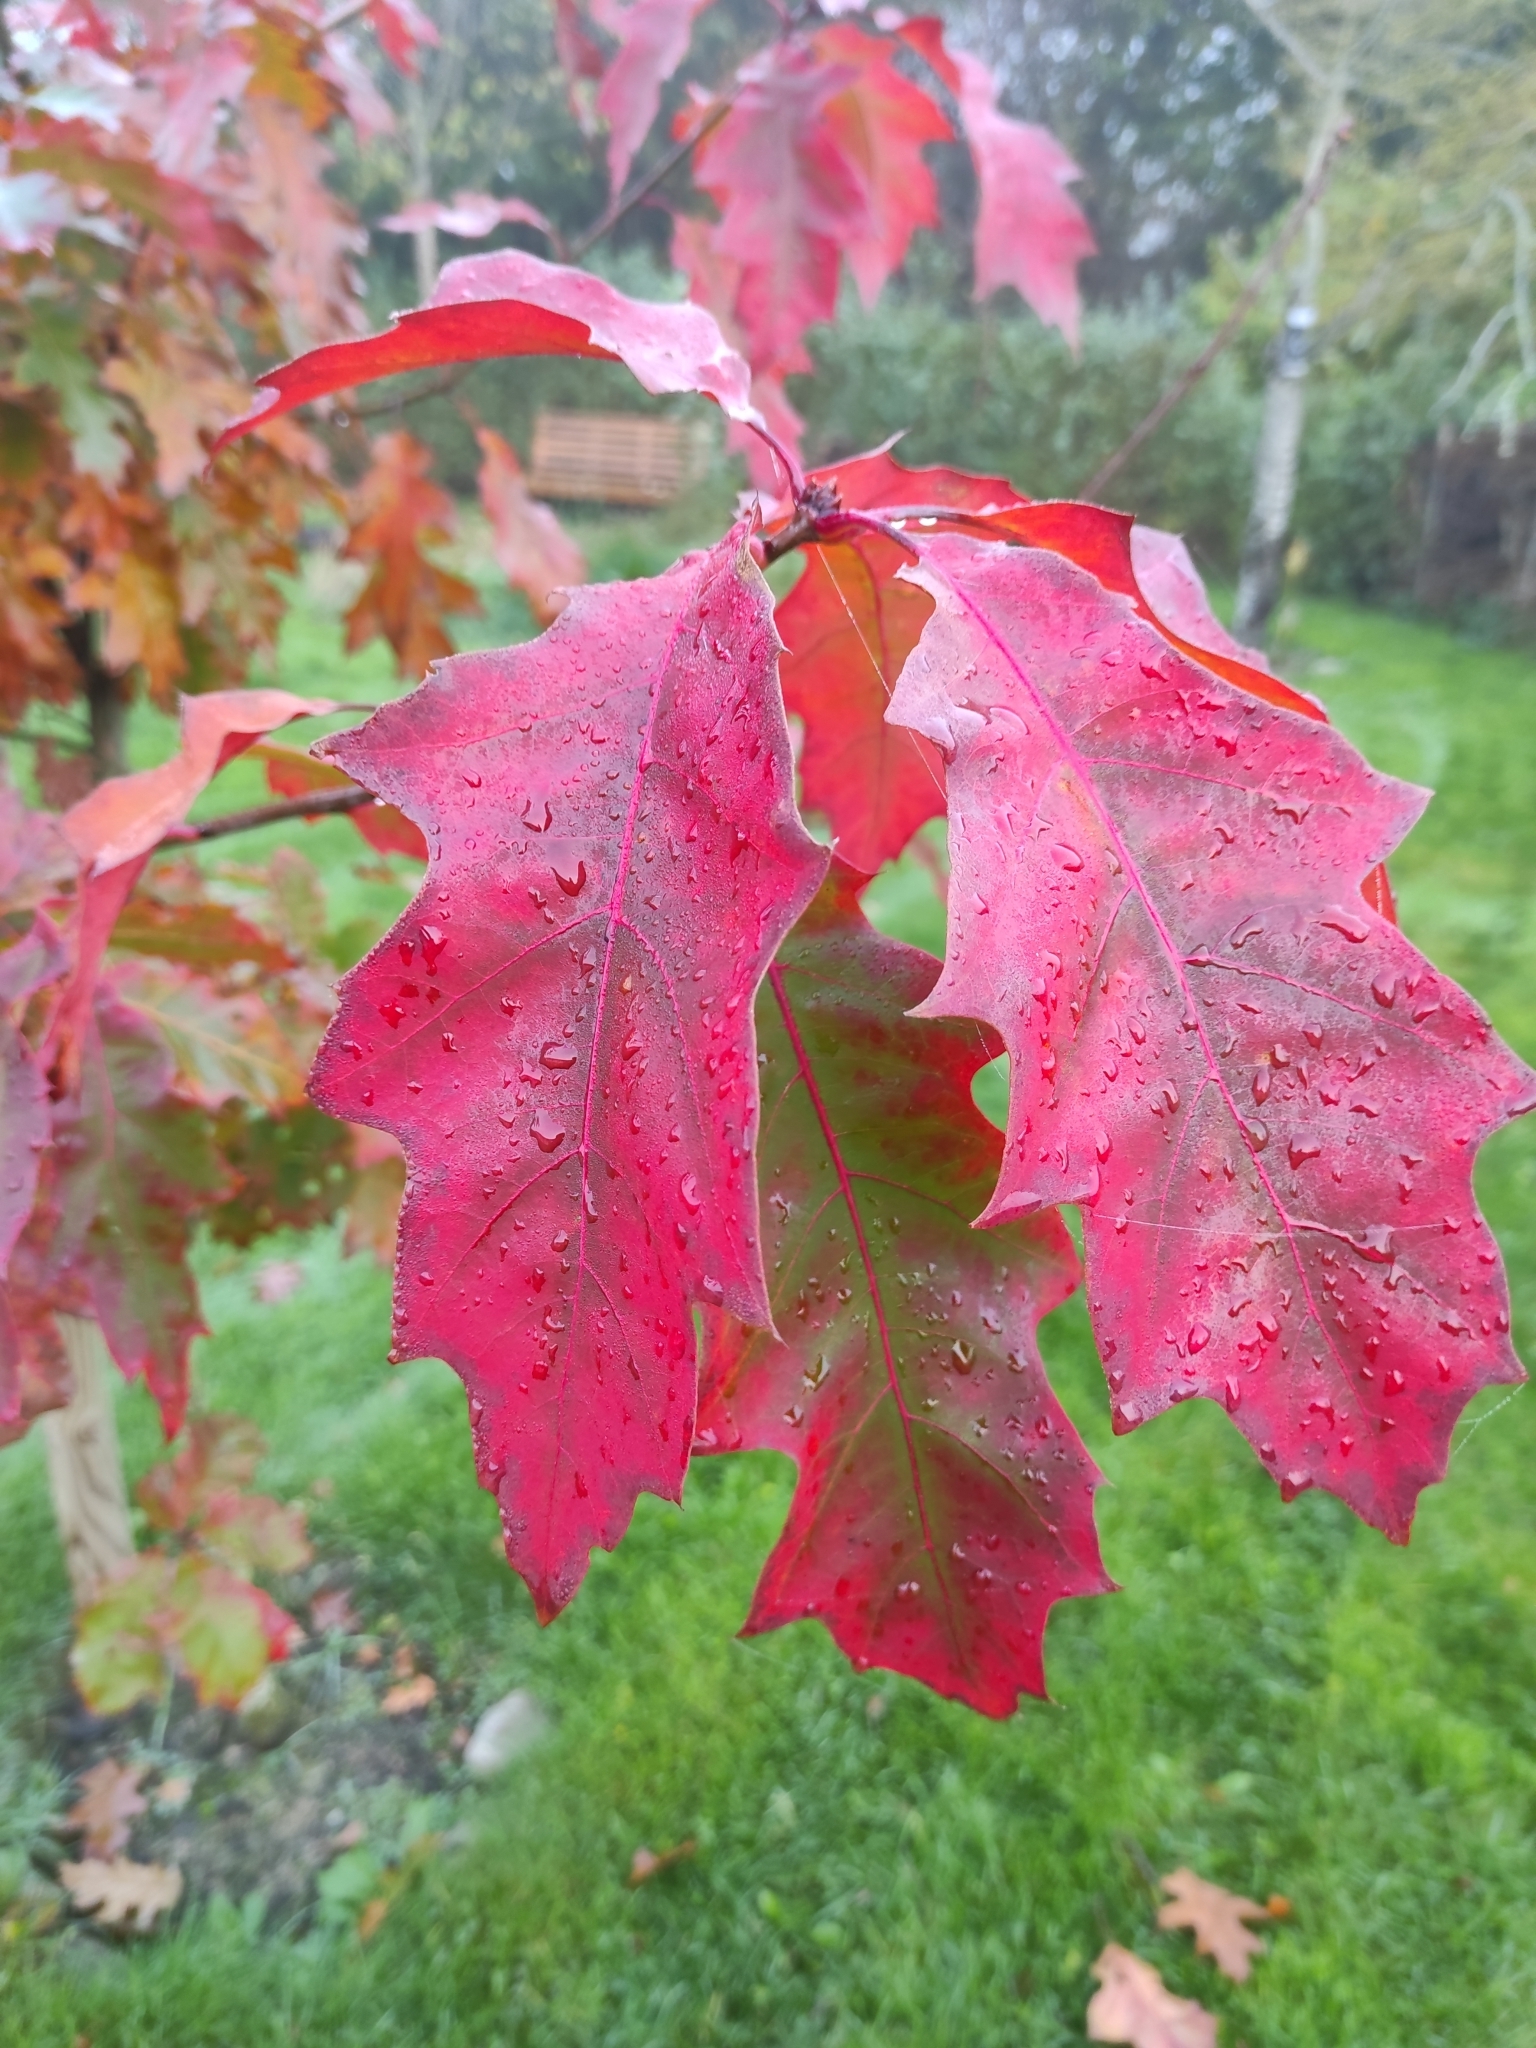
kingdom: Plantae
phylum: Tracheophyta
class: Magnoliopsida
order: Fagales
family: Fagaceae
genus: Quercus
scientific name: Quercus rubra
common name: Red oak
